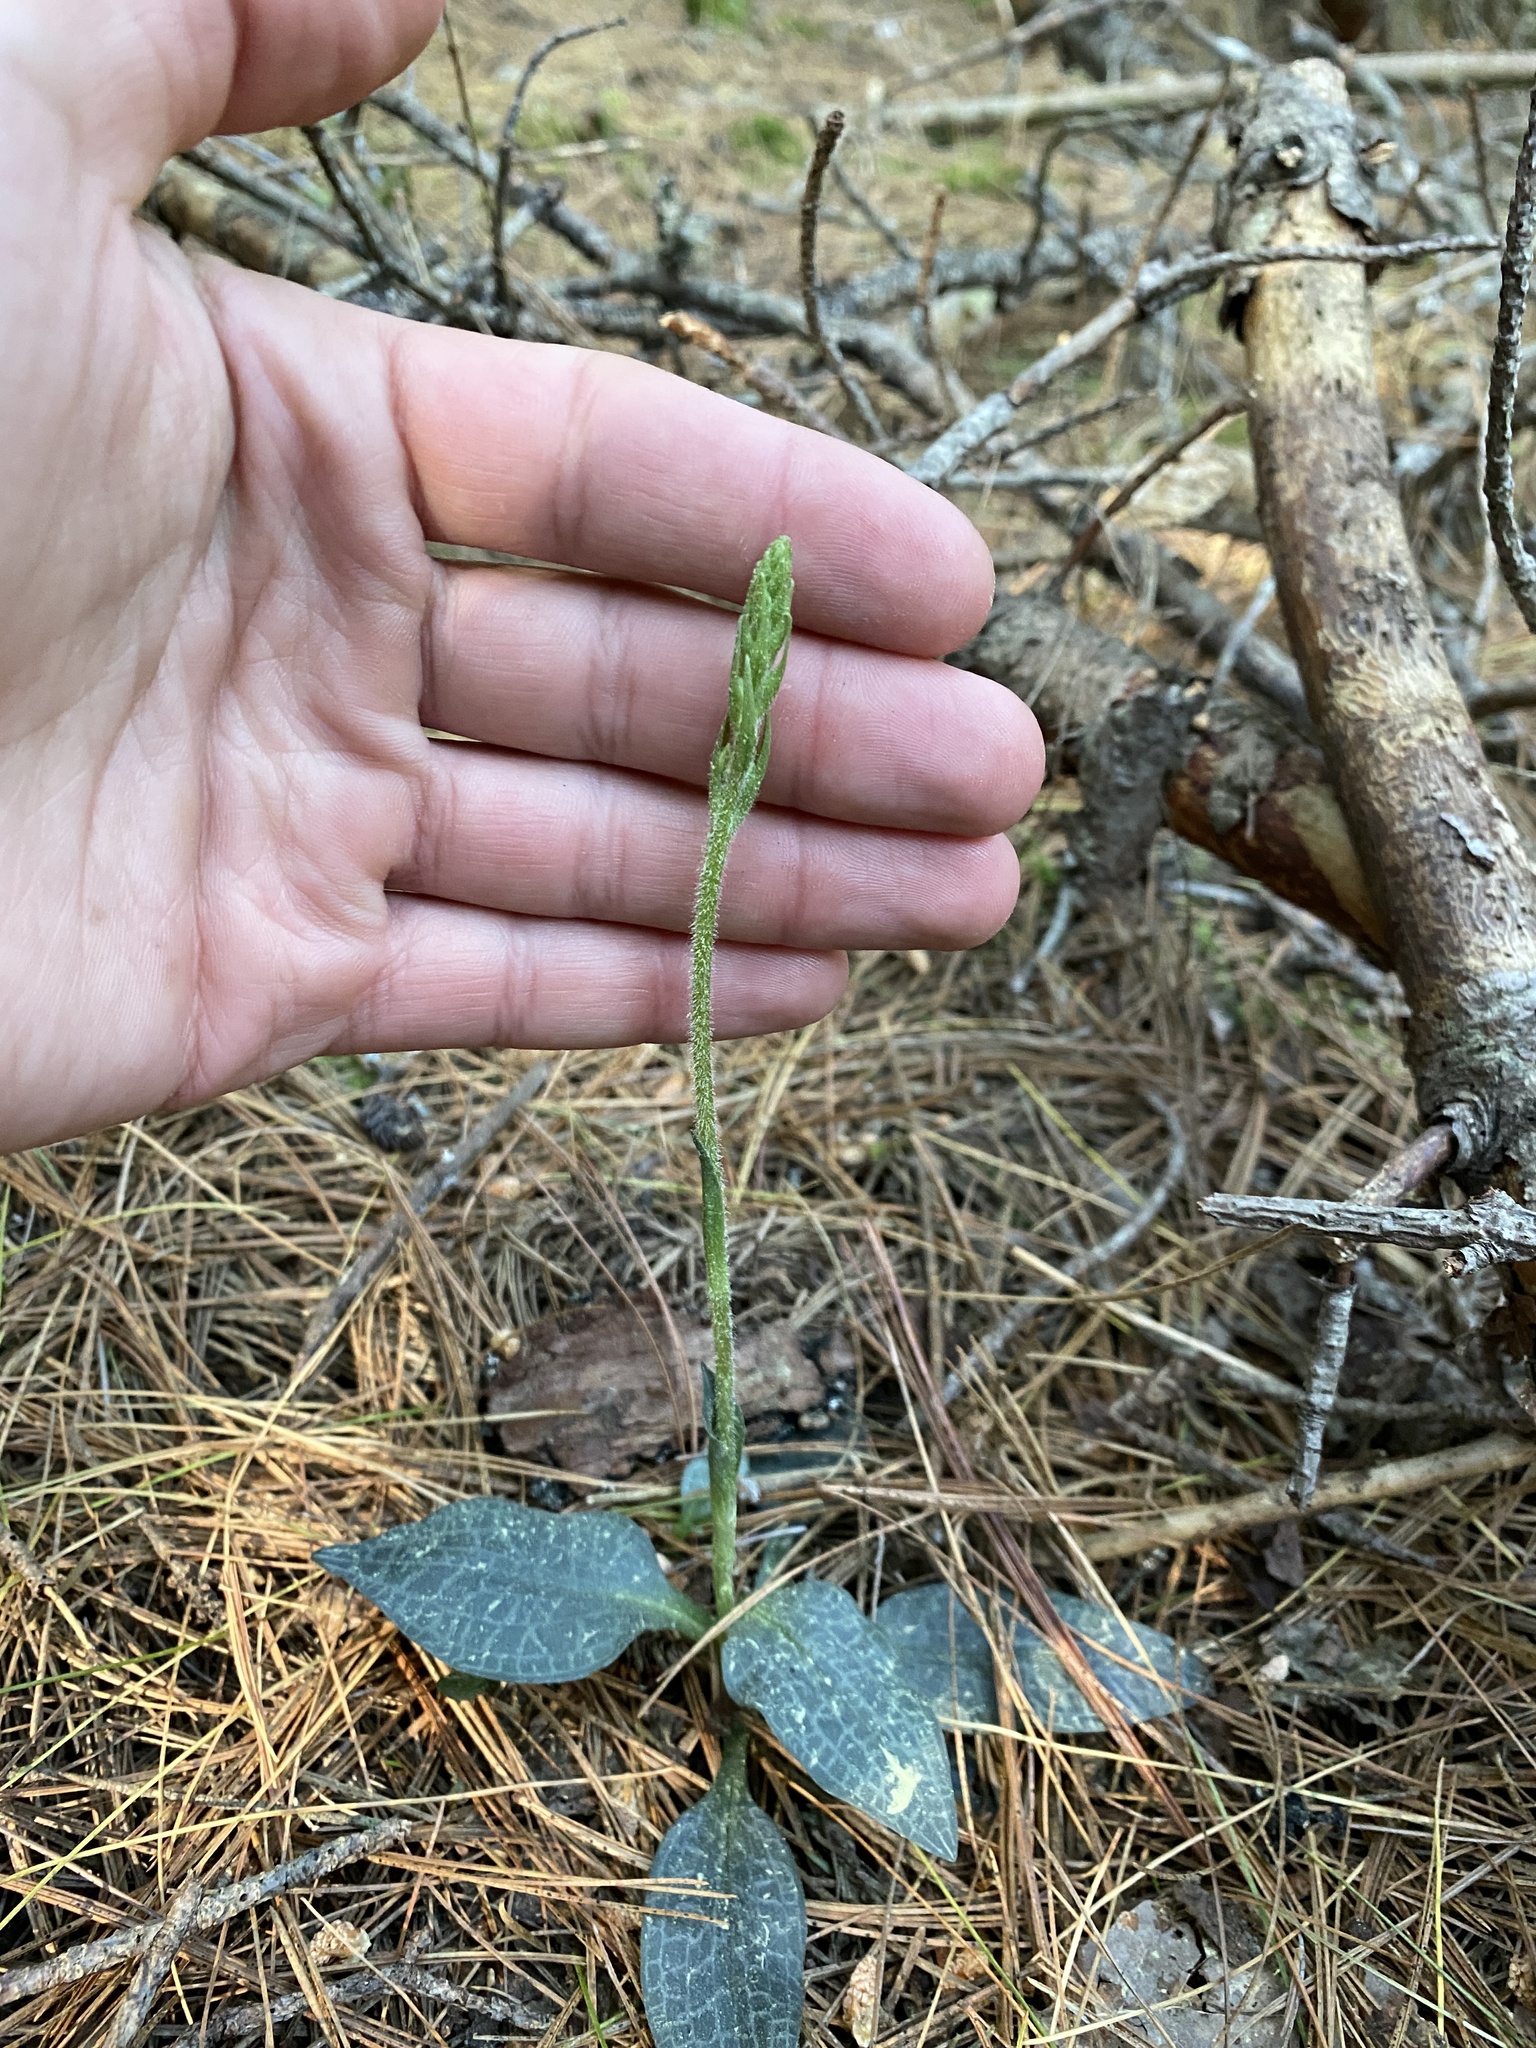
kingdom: Plantae
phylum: Tracheophyta
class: Liliopsida
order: Asparagales
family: Orchidaceae
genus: Goodyera
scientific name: Goodyera tesselata
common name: Checkered rattlesnake-plantain
